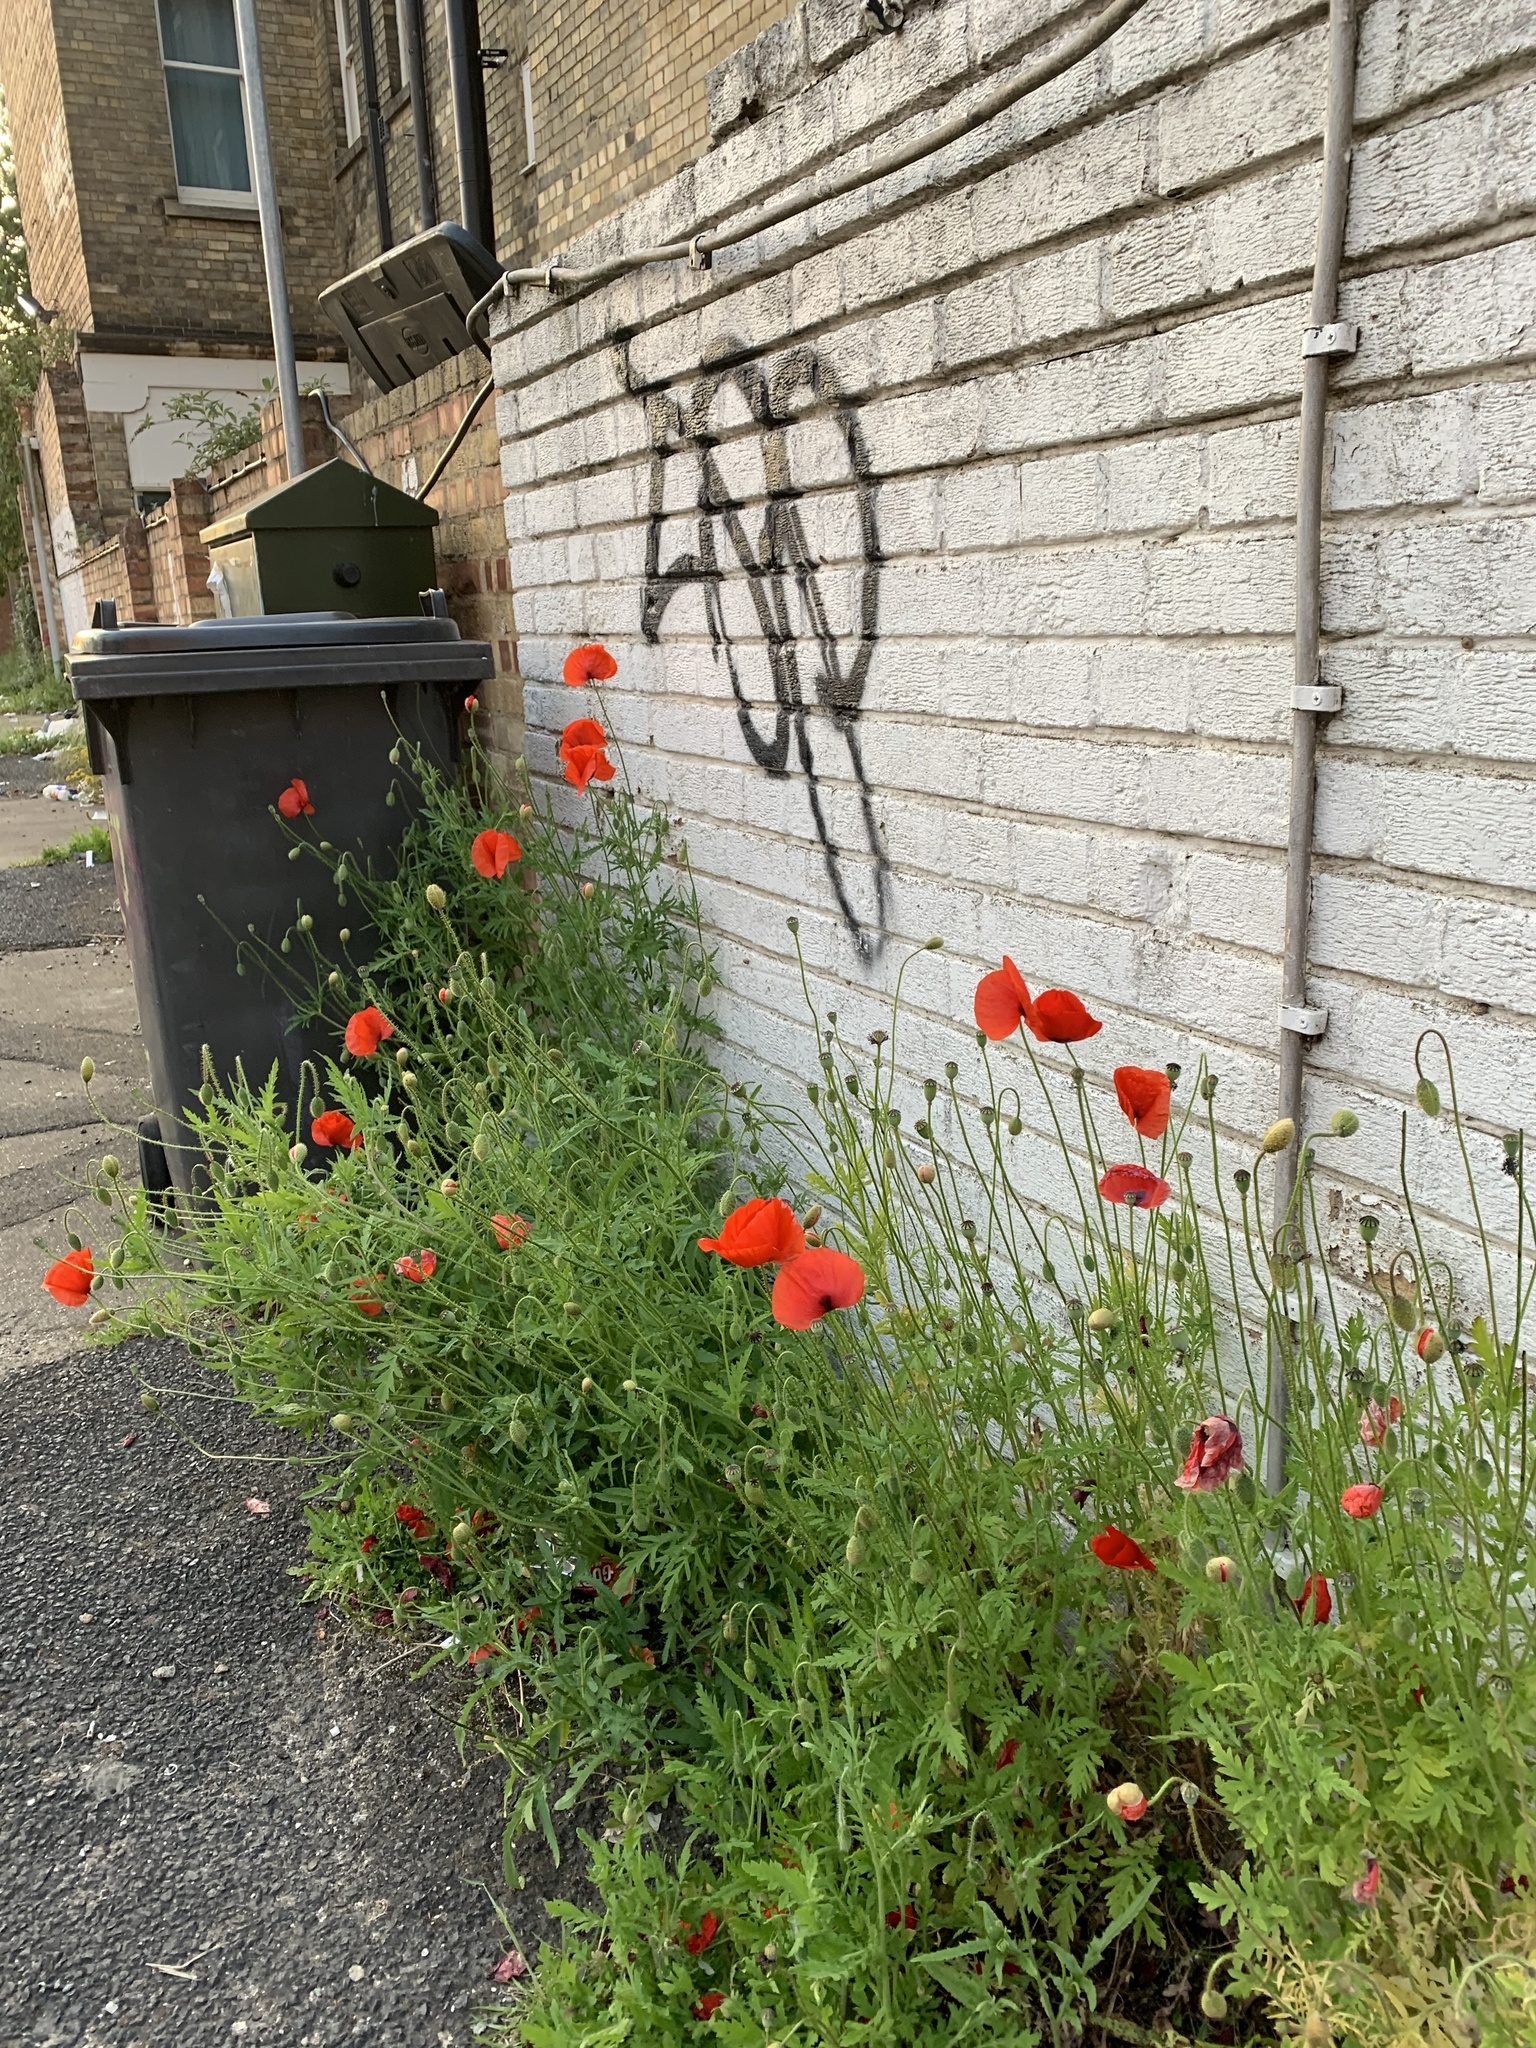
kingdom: Plantae
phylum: Tracheophyta
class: Magnoliopsida
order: Ranunculales
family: Papaveraceae
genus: Papaver
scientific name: Papaver rhoeas
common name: Corn poppy
